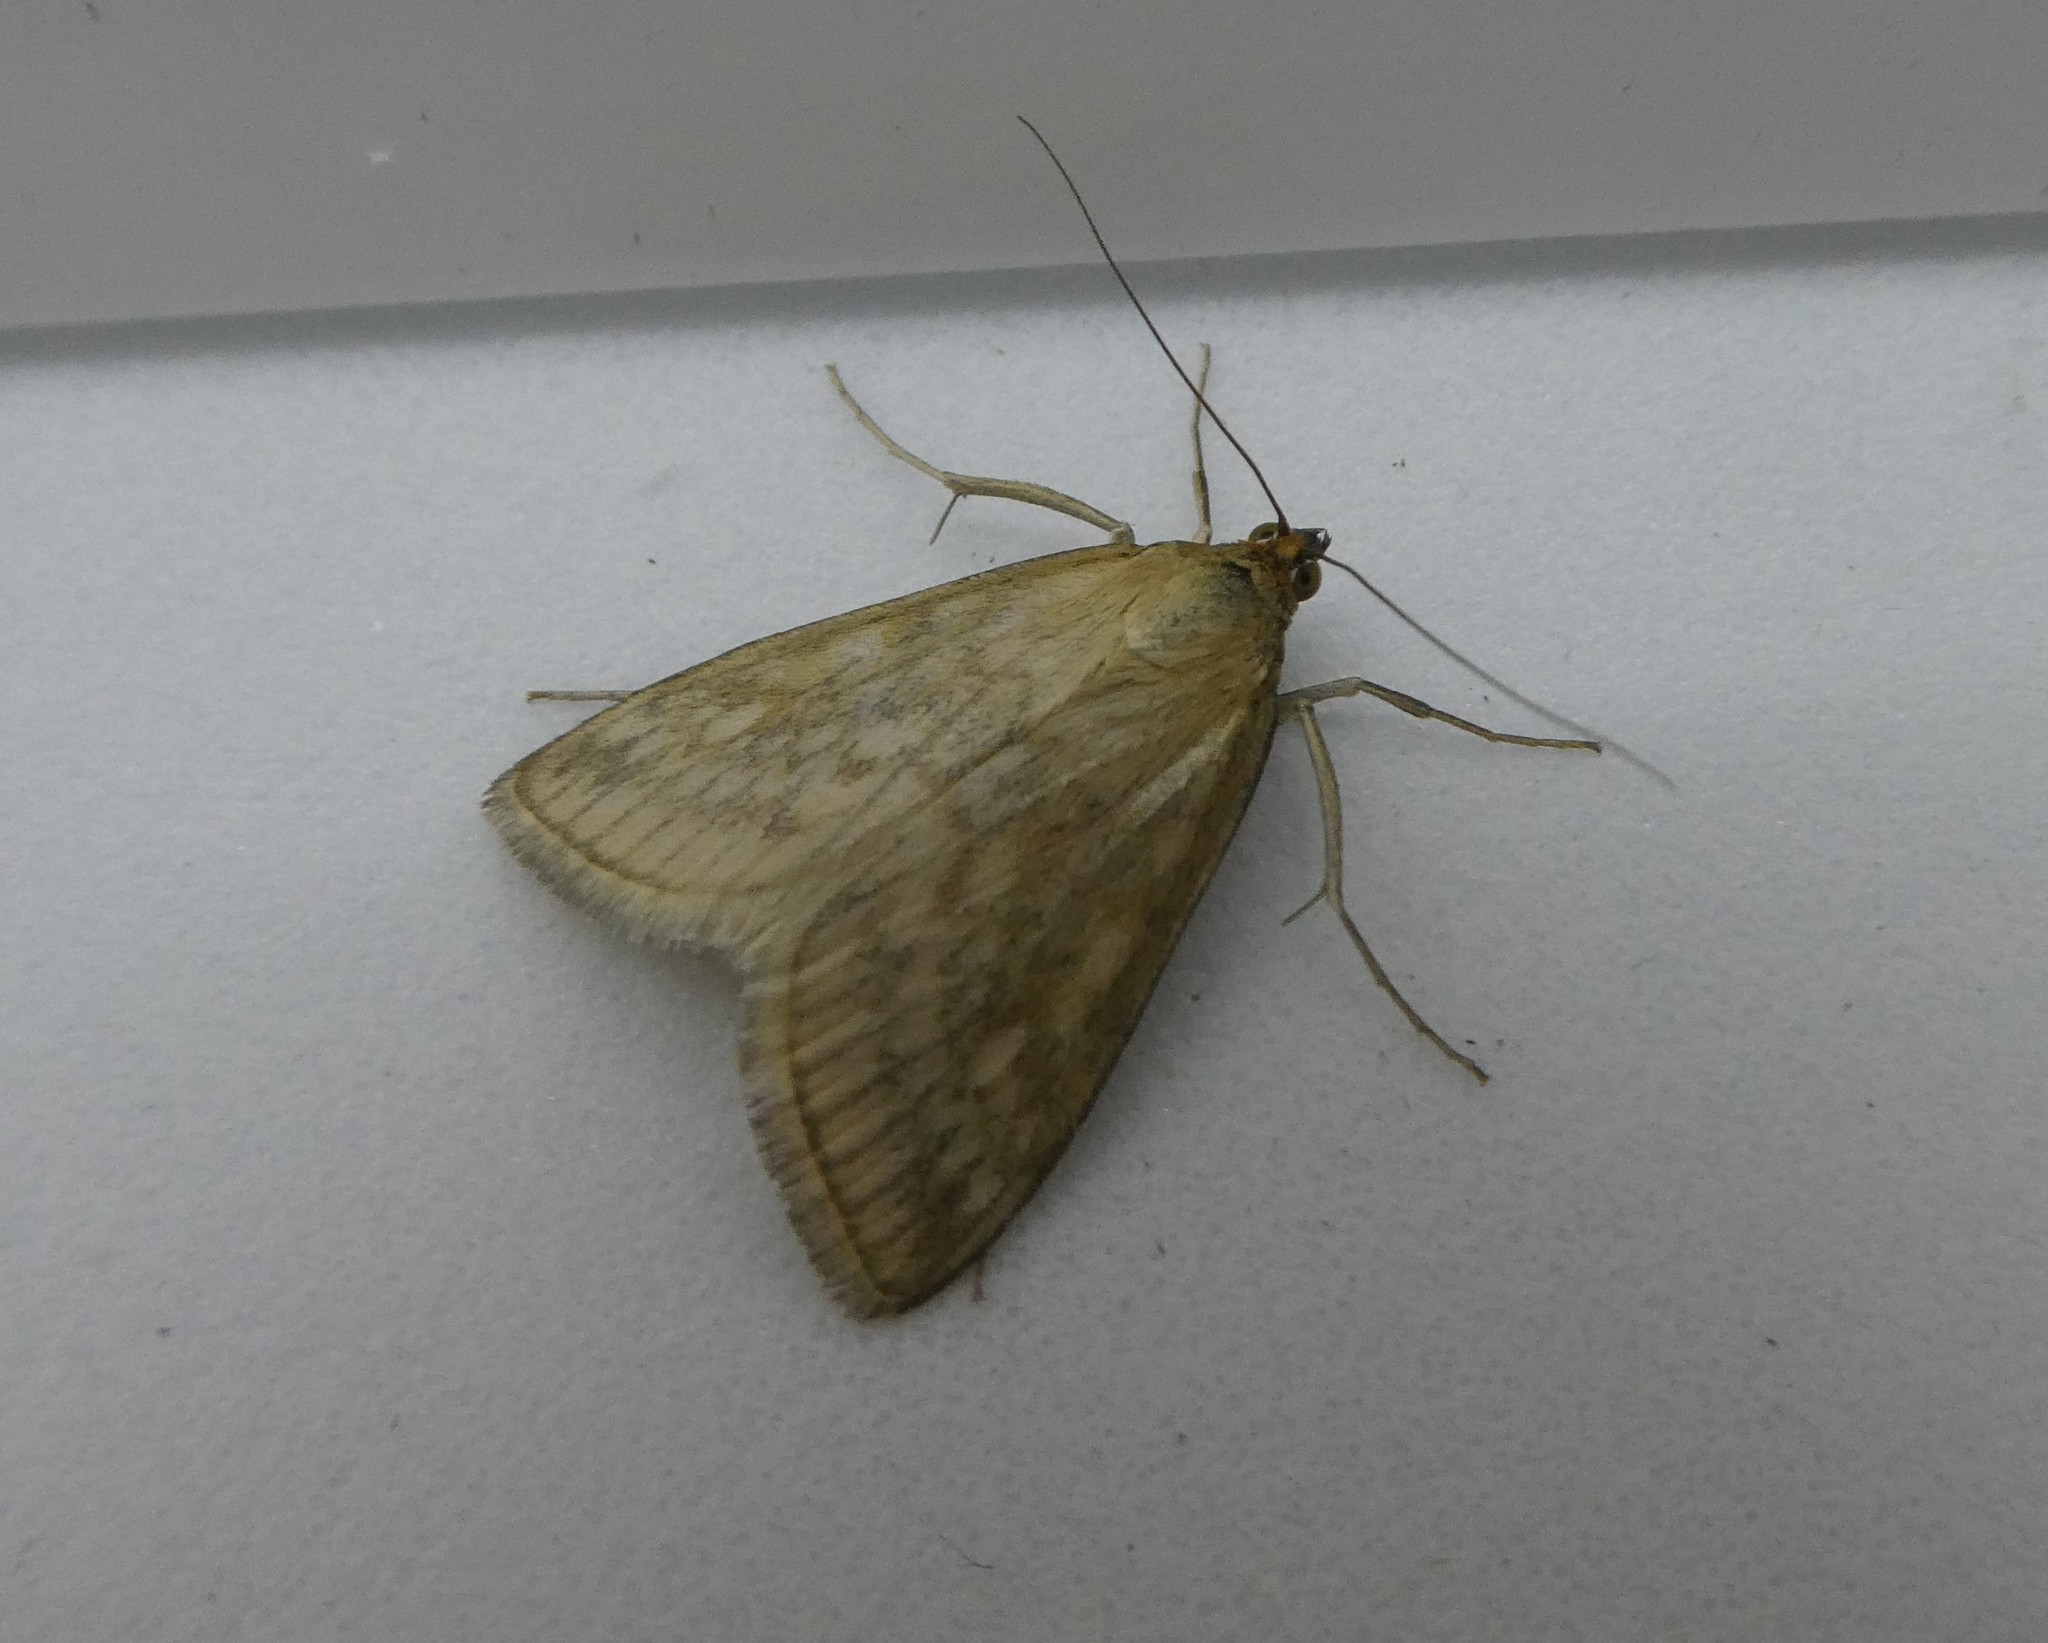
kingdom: Animalia
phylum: Arthropoda
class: Insecta
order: Lepidoptera
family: Crambidae
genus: Sitochroa
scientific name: Sitochroa chortalis
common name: Dimorphic sitochroa moth
